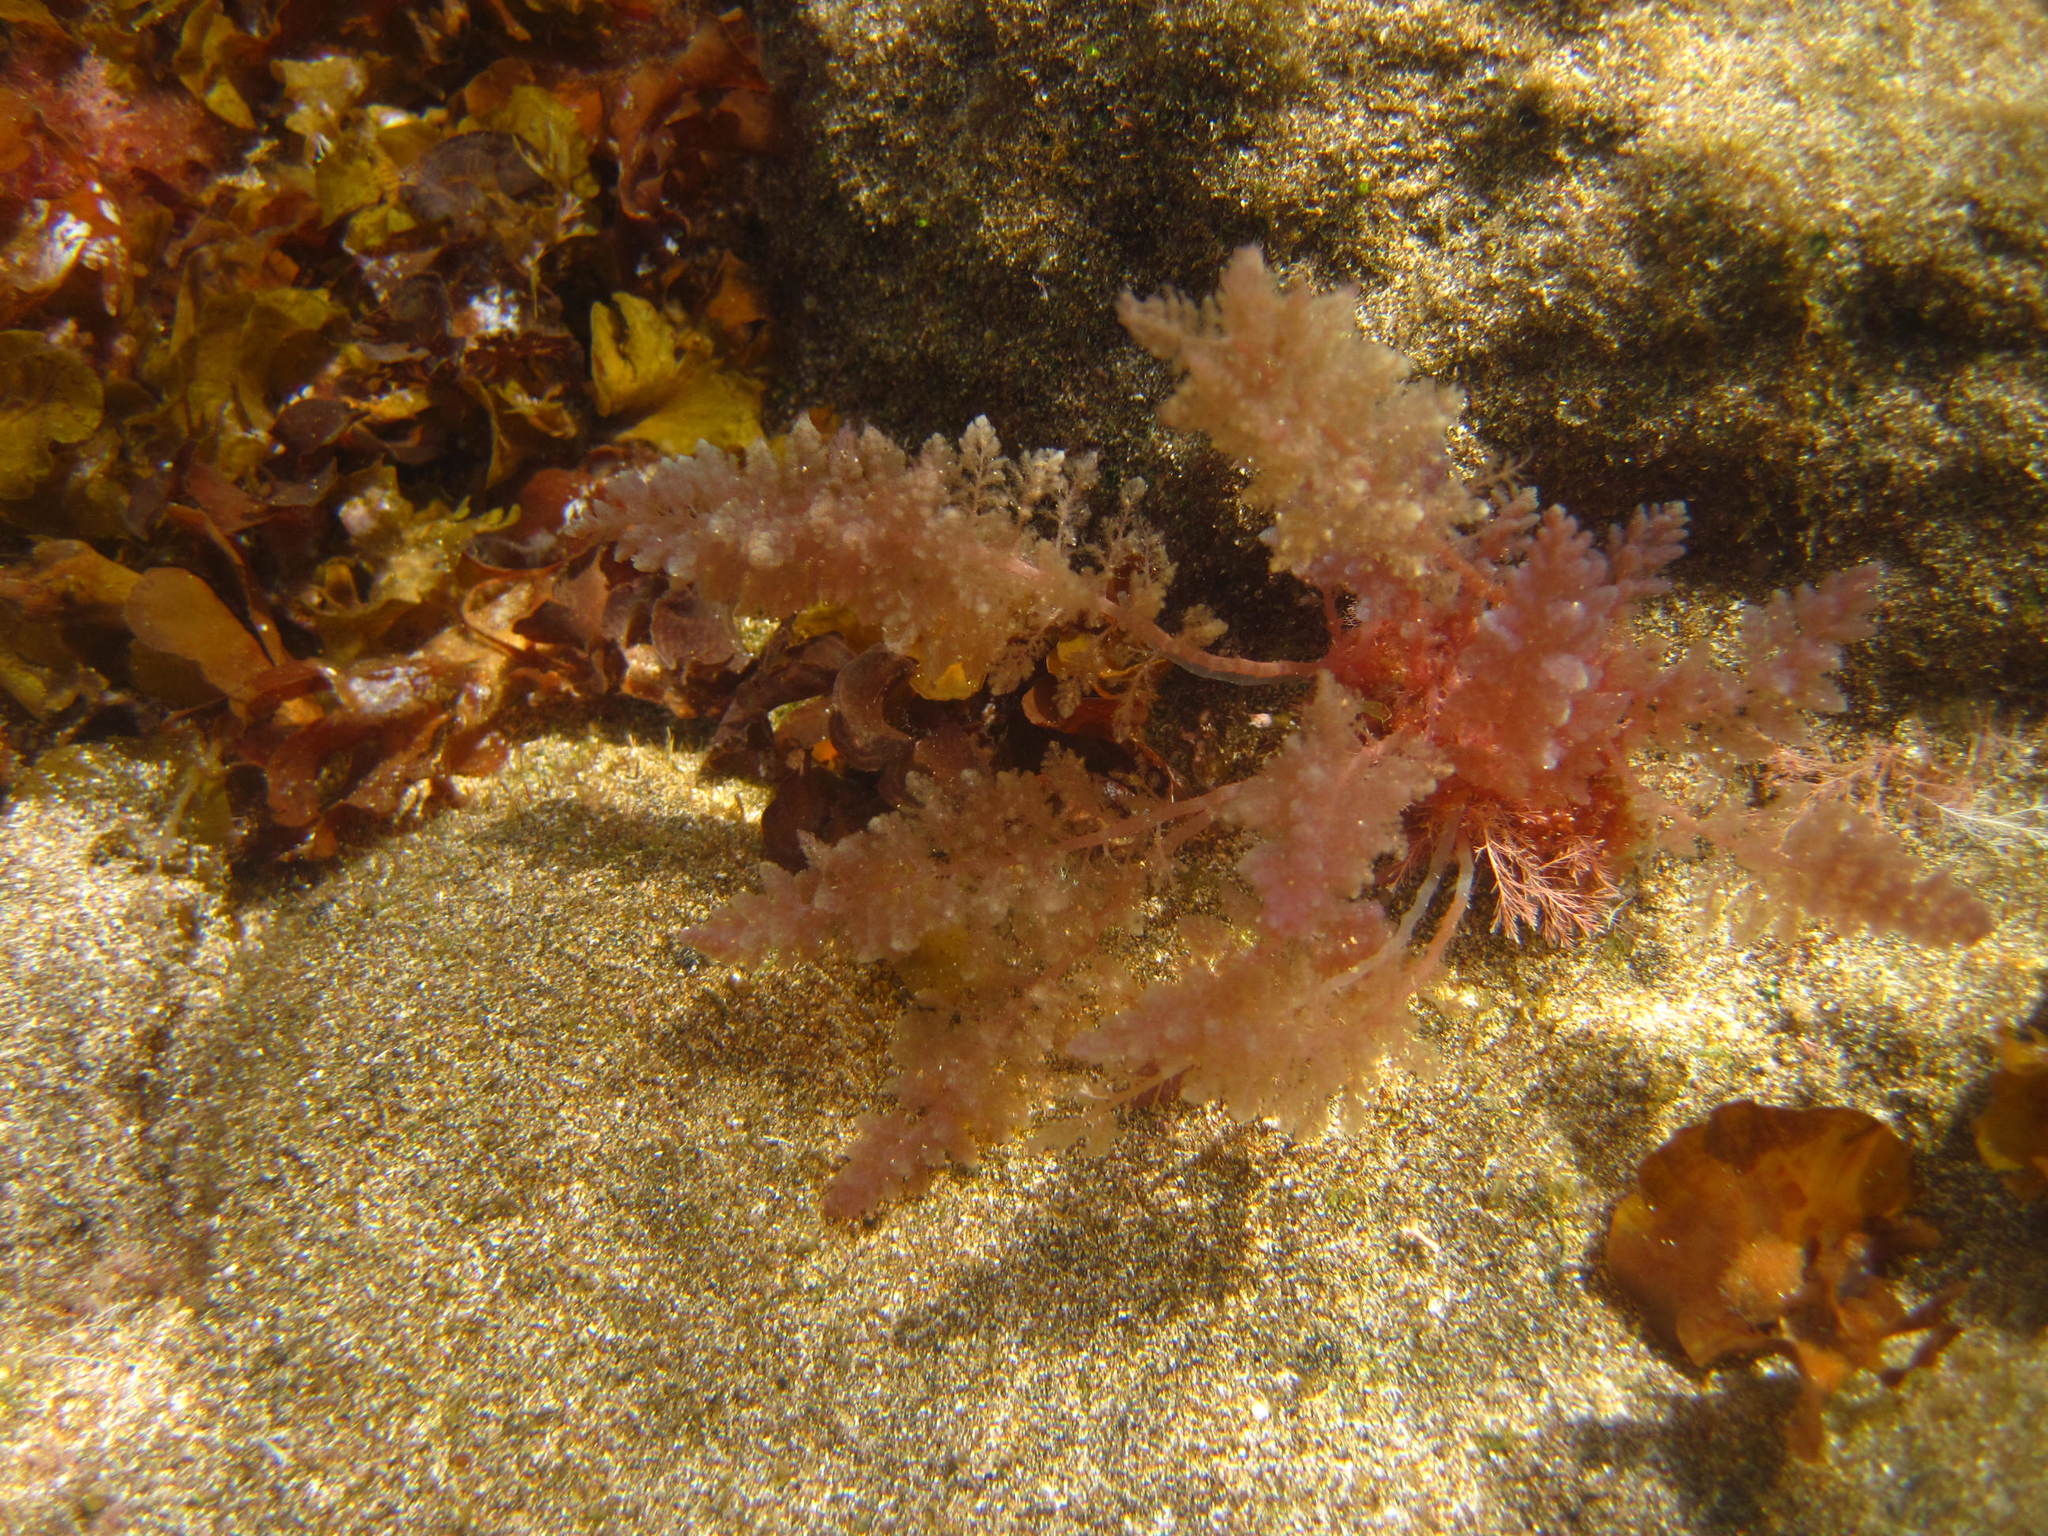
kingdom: Plantae
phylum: Rhodophyta
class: Florideophyceae
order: Bonnemaisoniales
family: Bonnemaisoniaceae
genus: Asparagopsis
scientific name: Asparagopsis taxiformis
